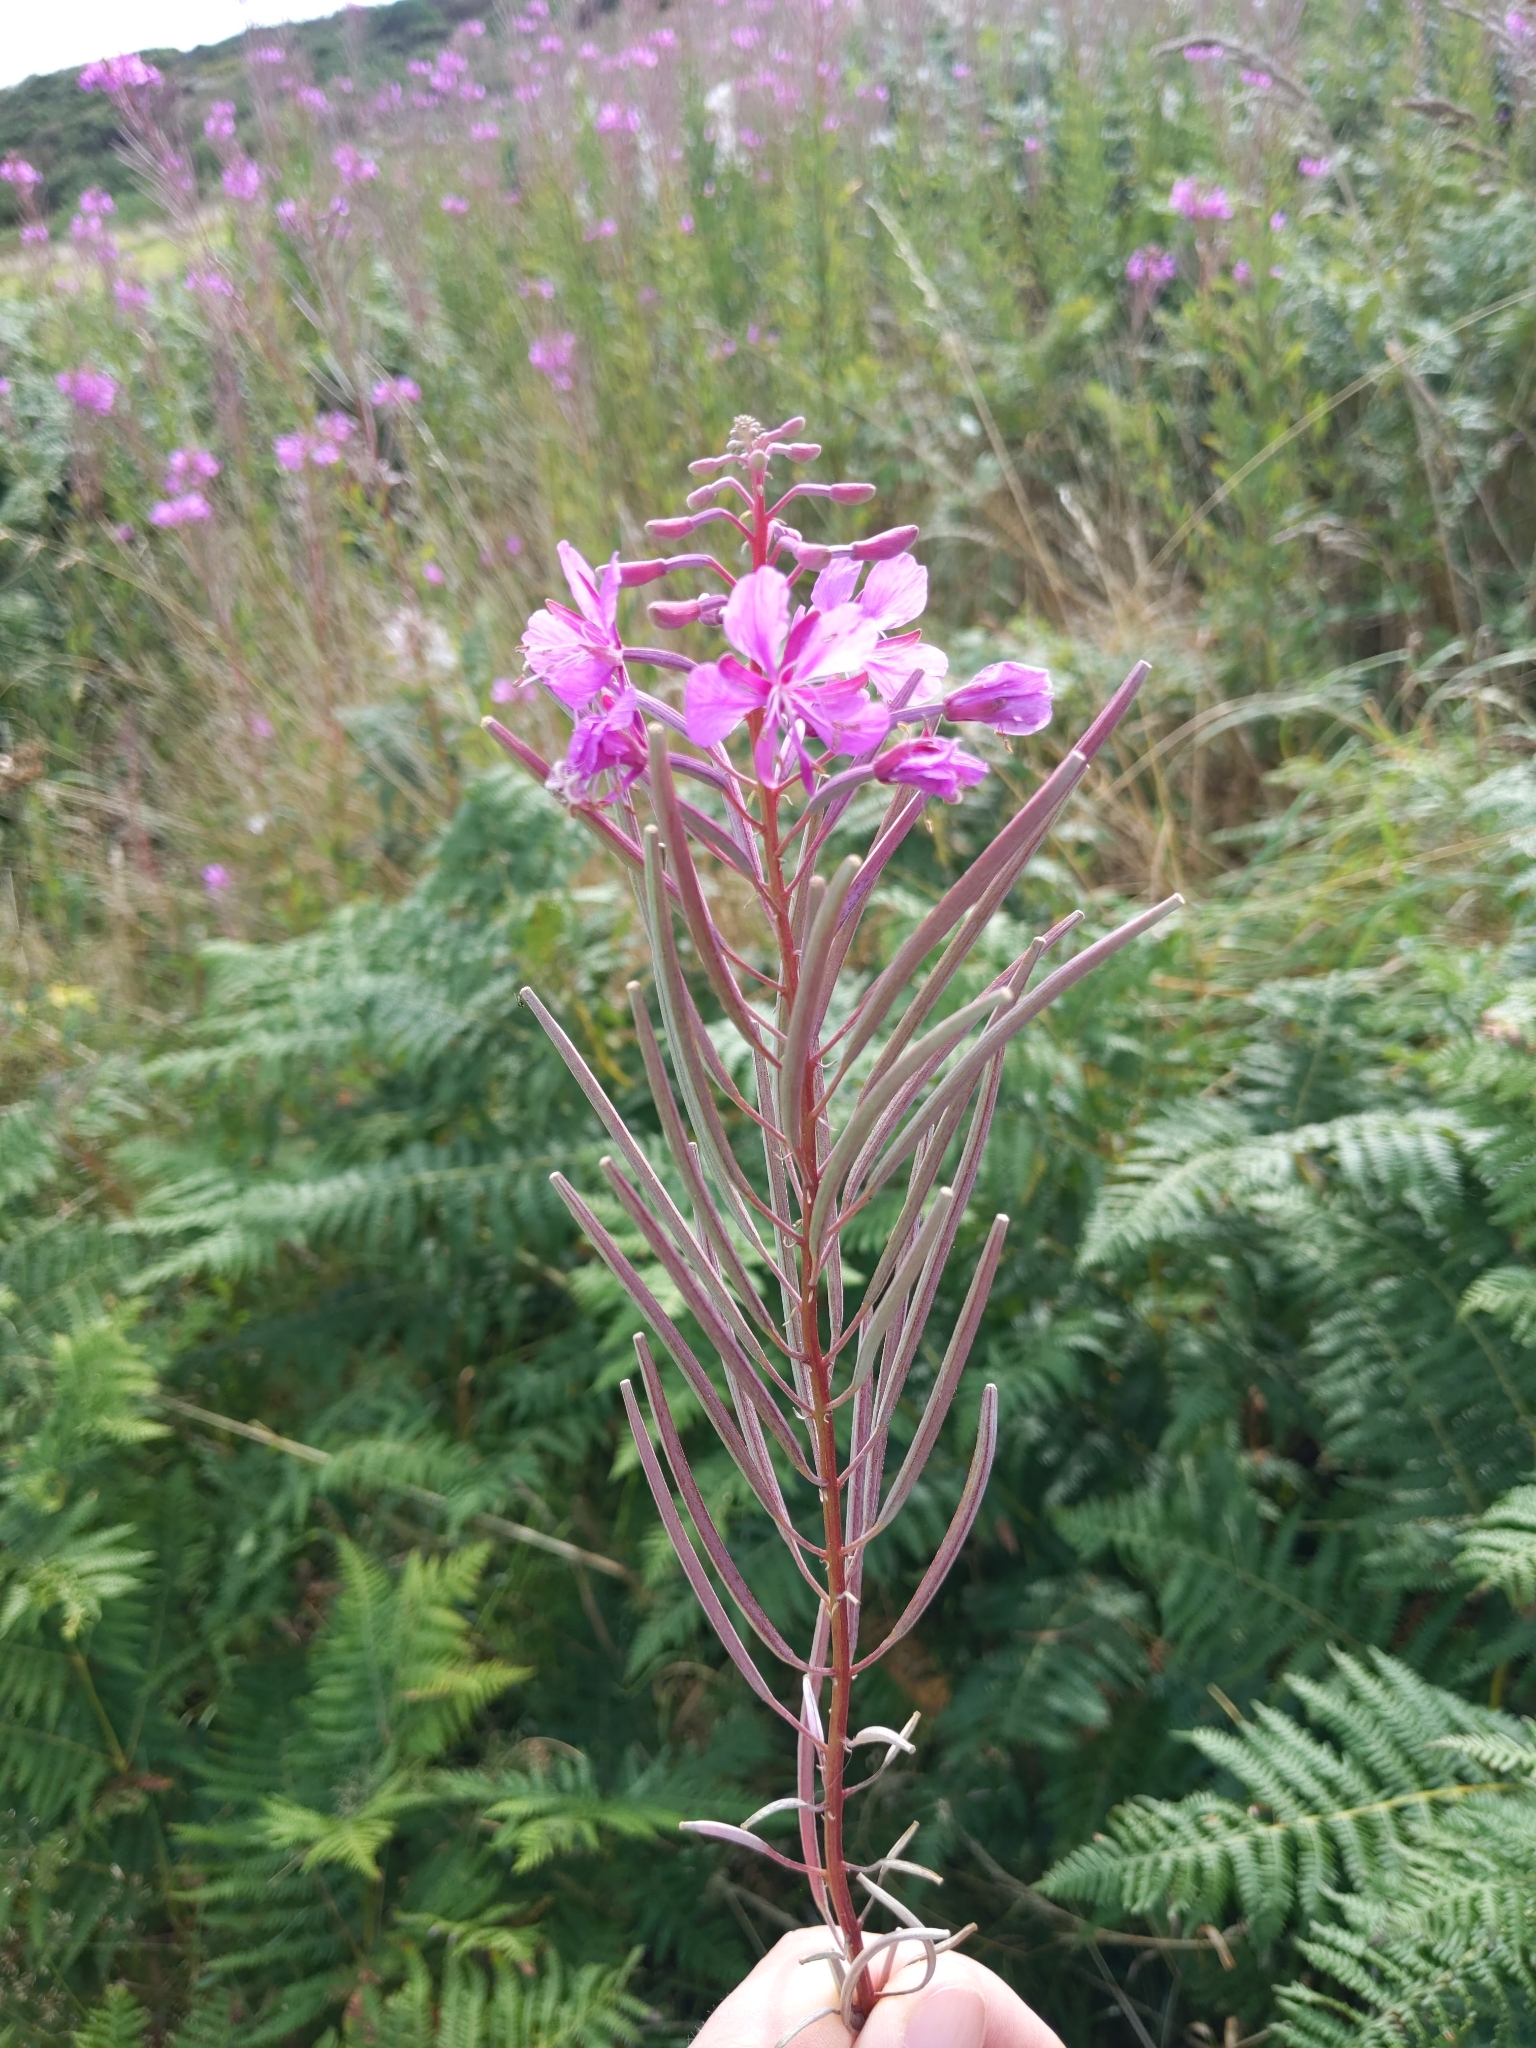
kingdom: Plantae
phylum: Tracheophyta
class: Magnoliopsida
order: Myrtales
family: Onagraceae
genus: Chamaenerion
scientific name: Chamaenerion angustifolium
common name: Fireweed
